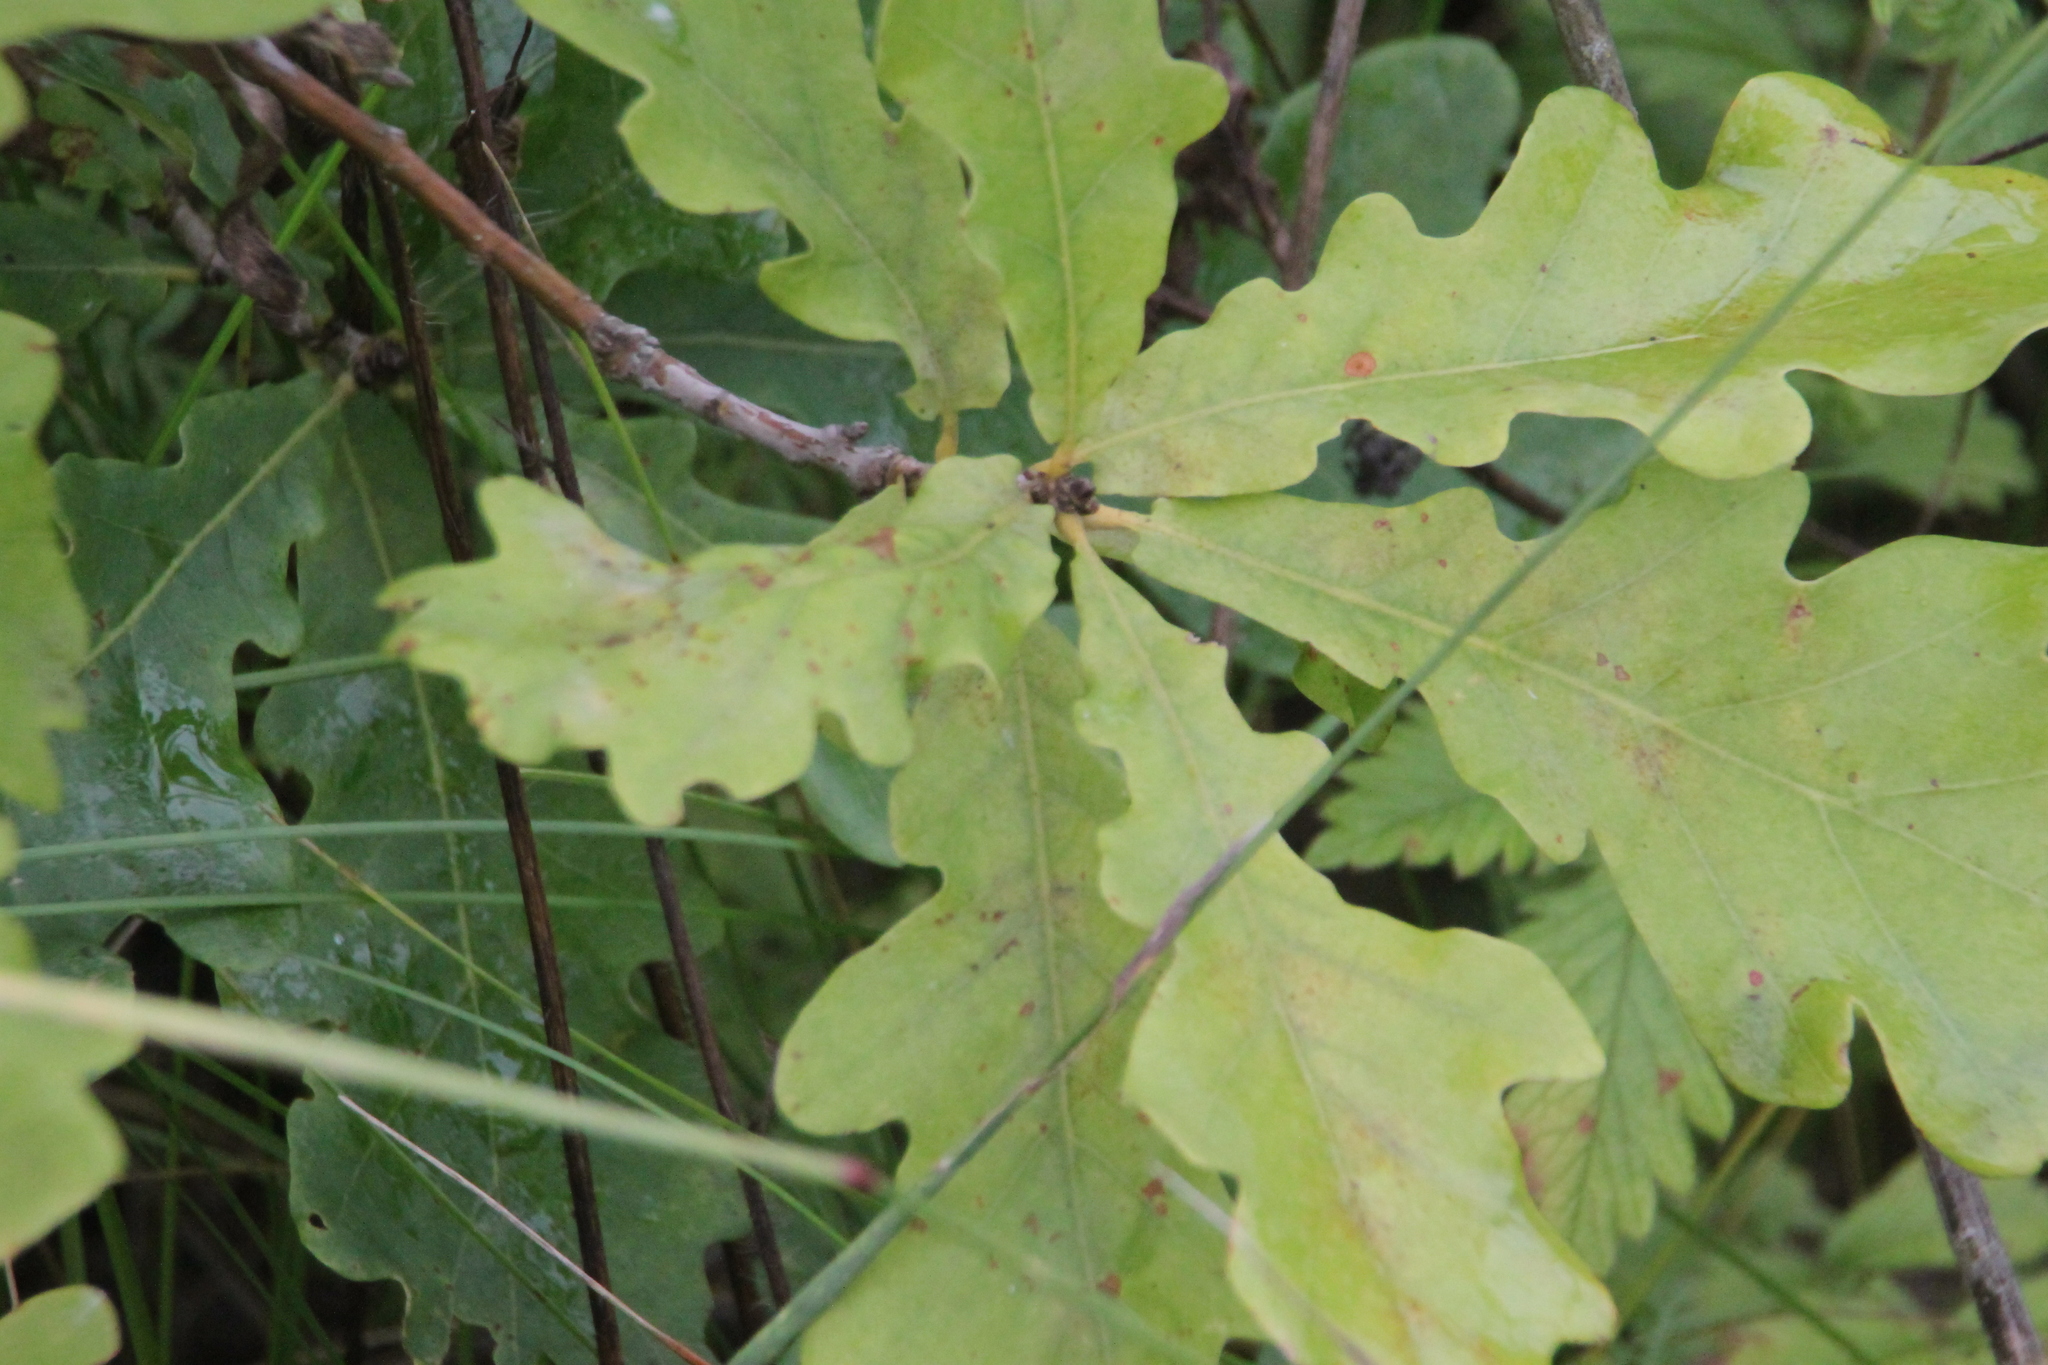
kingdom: Plantae
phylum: Tracheophyta
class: Magnoliopsida
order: Fagales
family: Fagaceae
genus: Quercus
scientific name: Quercus robur
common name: Pedunculate oak
